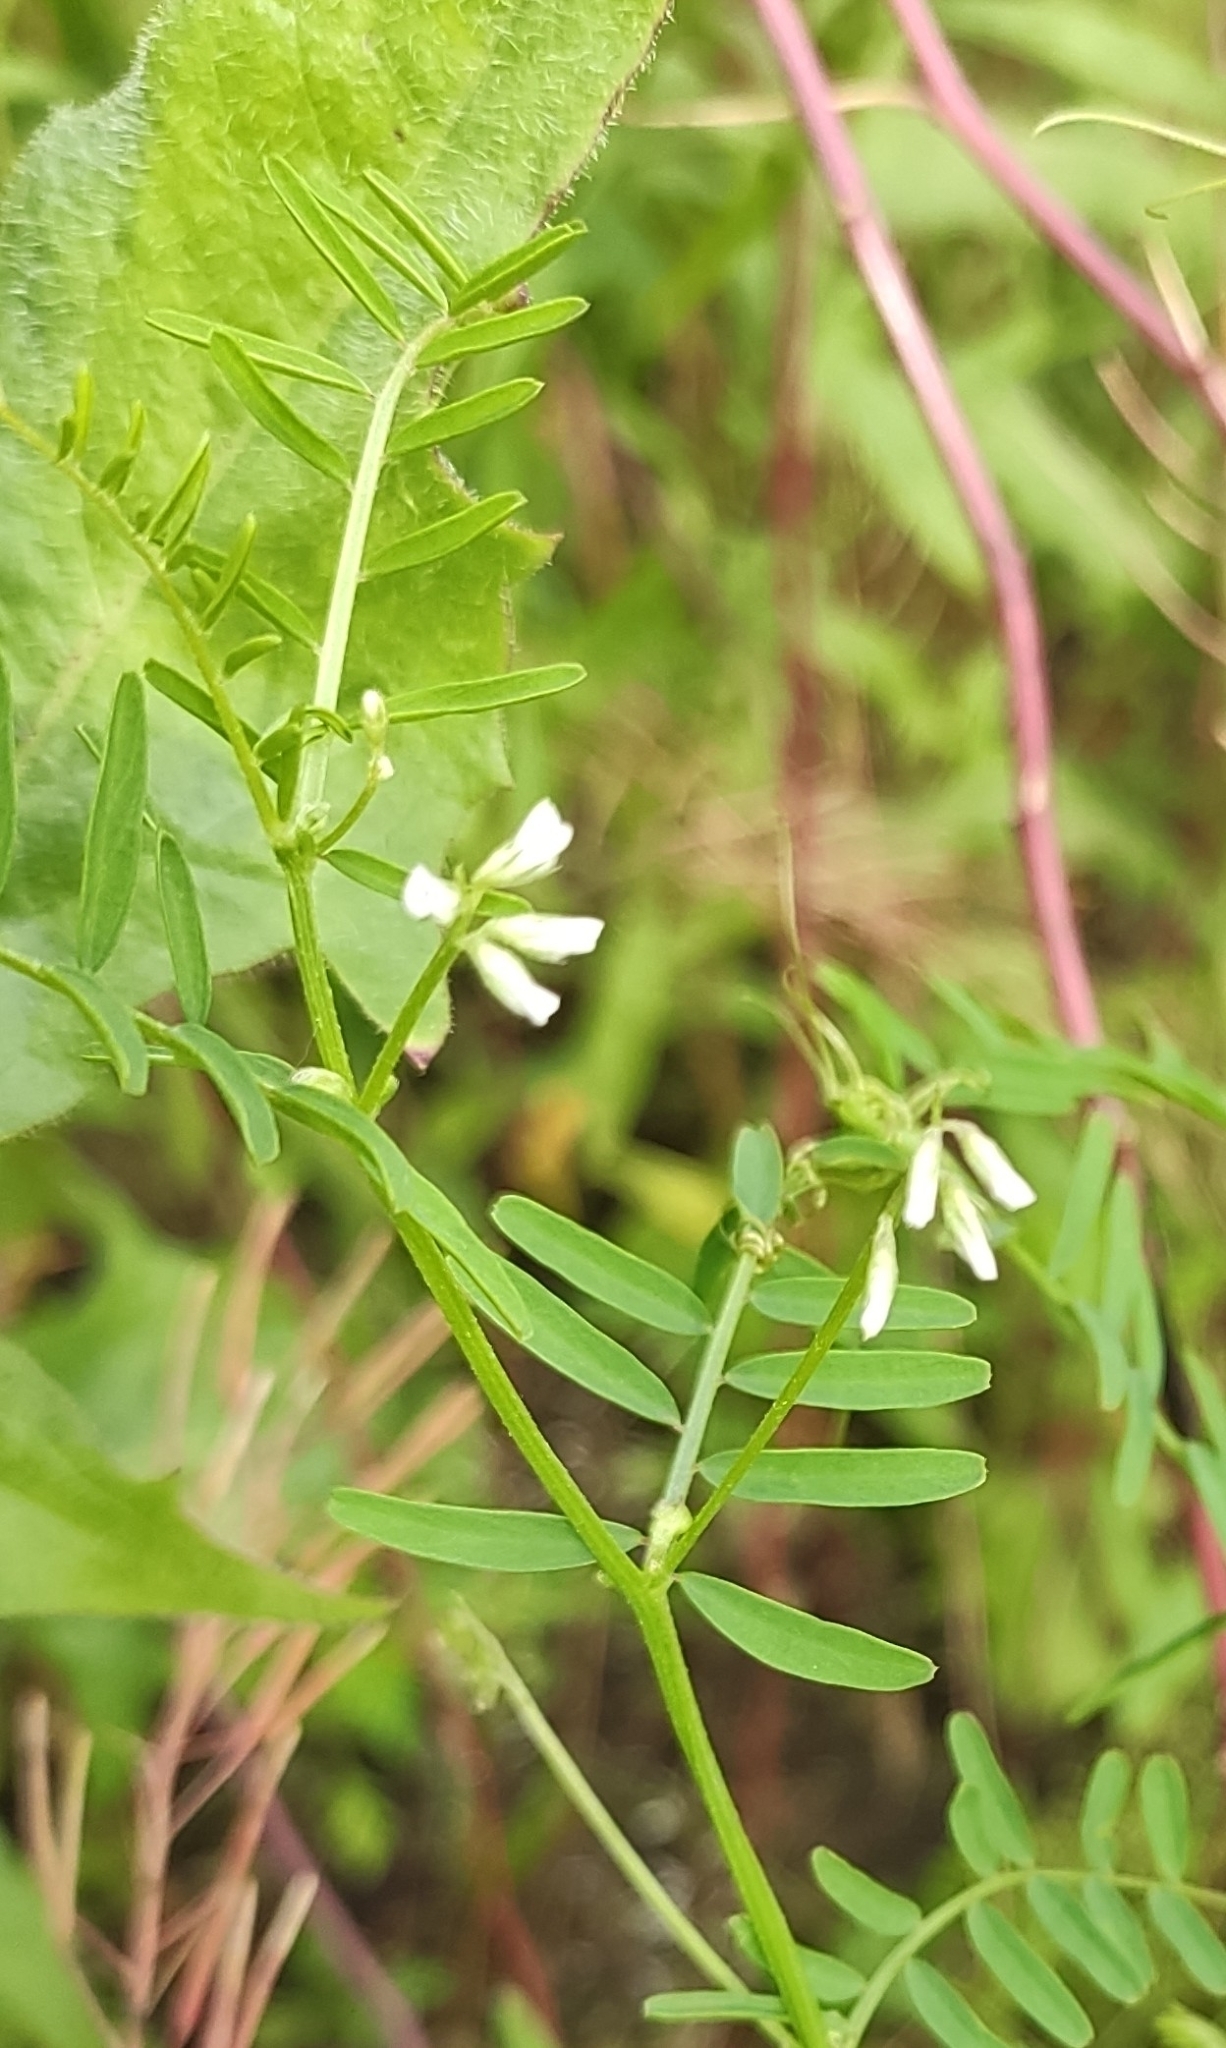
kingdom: Plantae
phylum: Tracheophyta
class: Magnoliopsida
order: Fabales
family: Fabaceae
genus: Vicia
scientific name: Vicia hirsuta
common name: Tiny vetch
